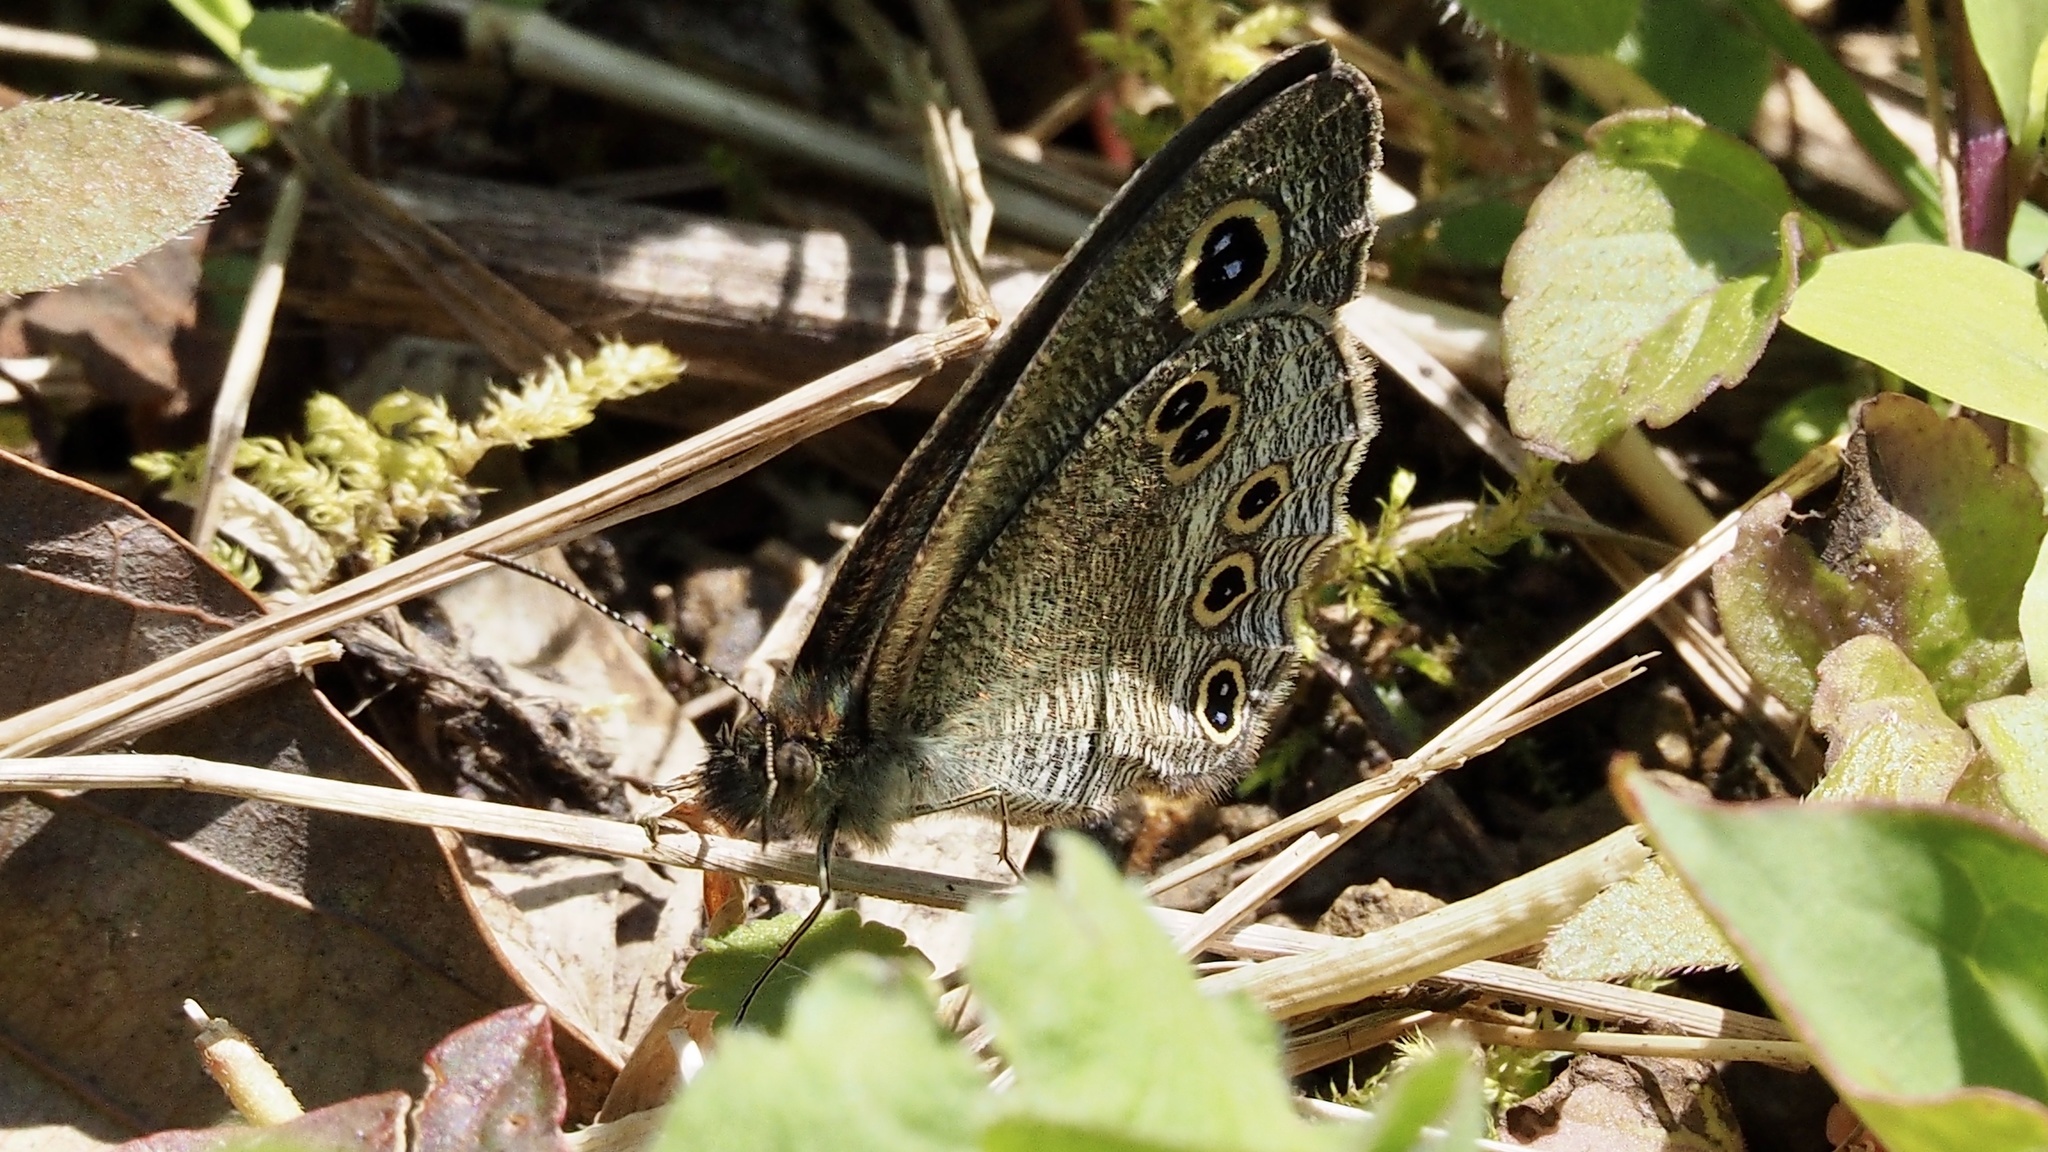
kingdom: Animalia
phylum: Arthropoda
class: Insecta
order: Lepidoptera
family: Nymphalidae
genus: Ypthima
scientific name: Ypthima argus
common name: Common fivering
